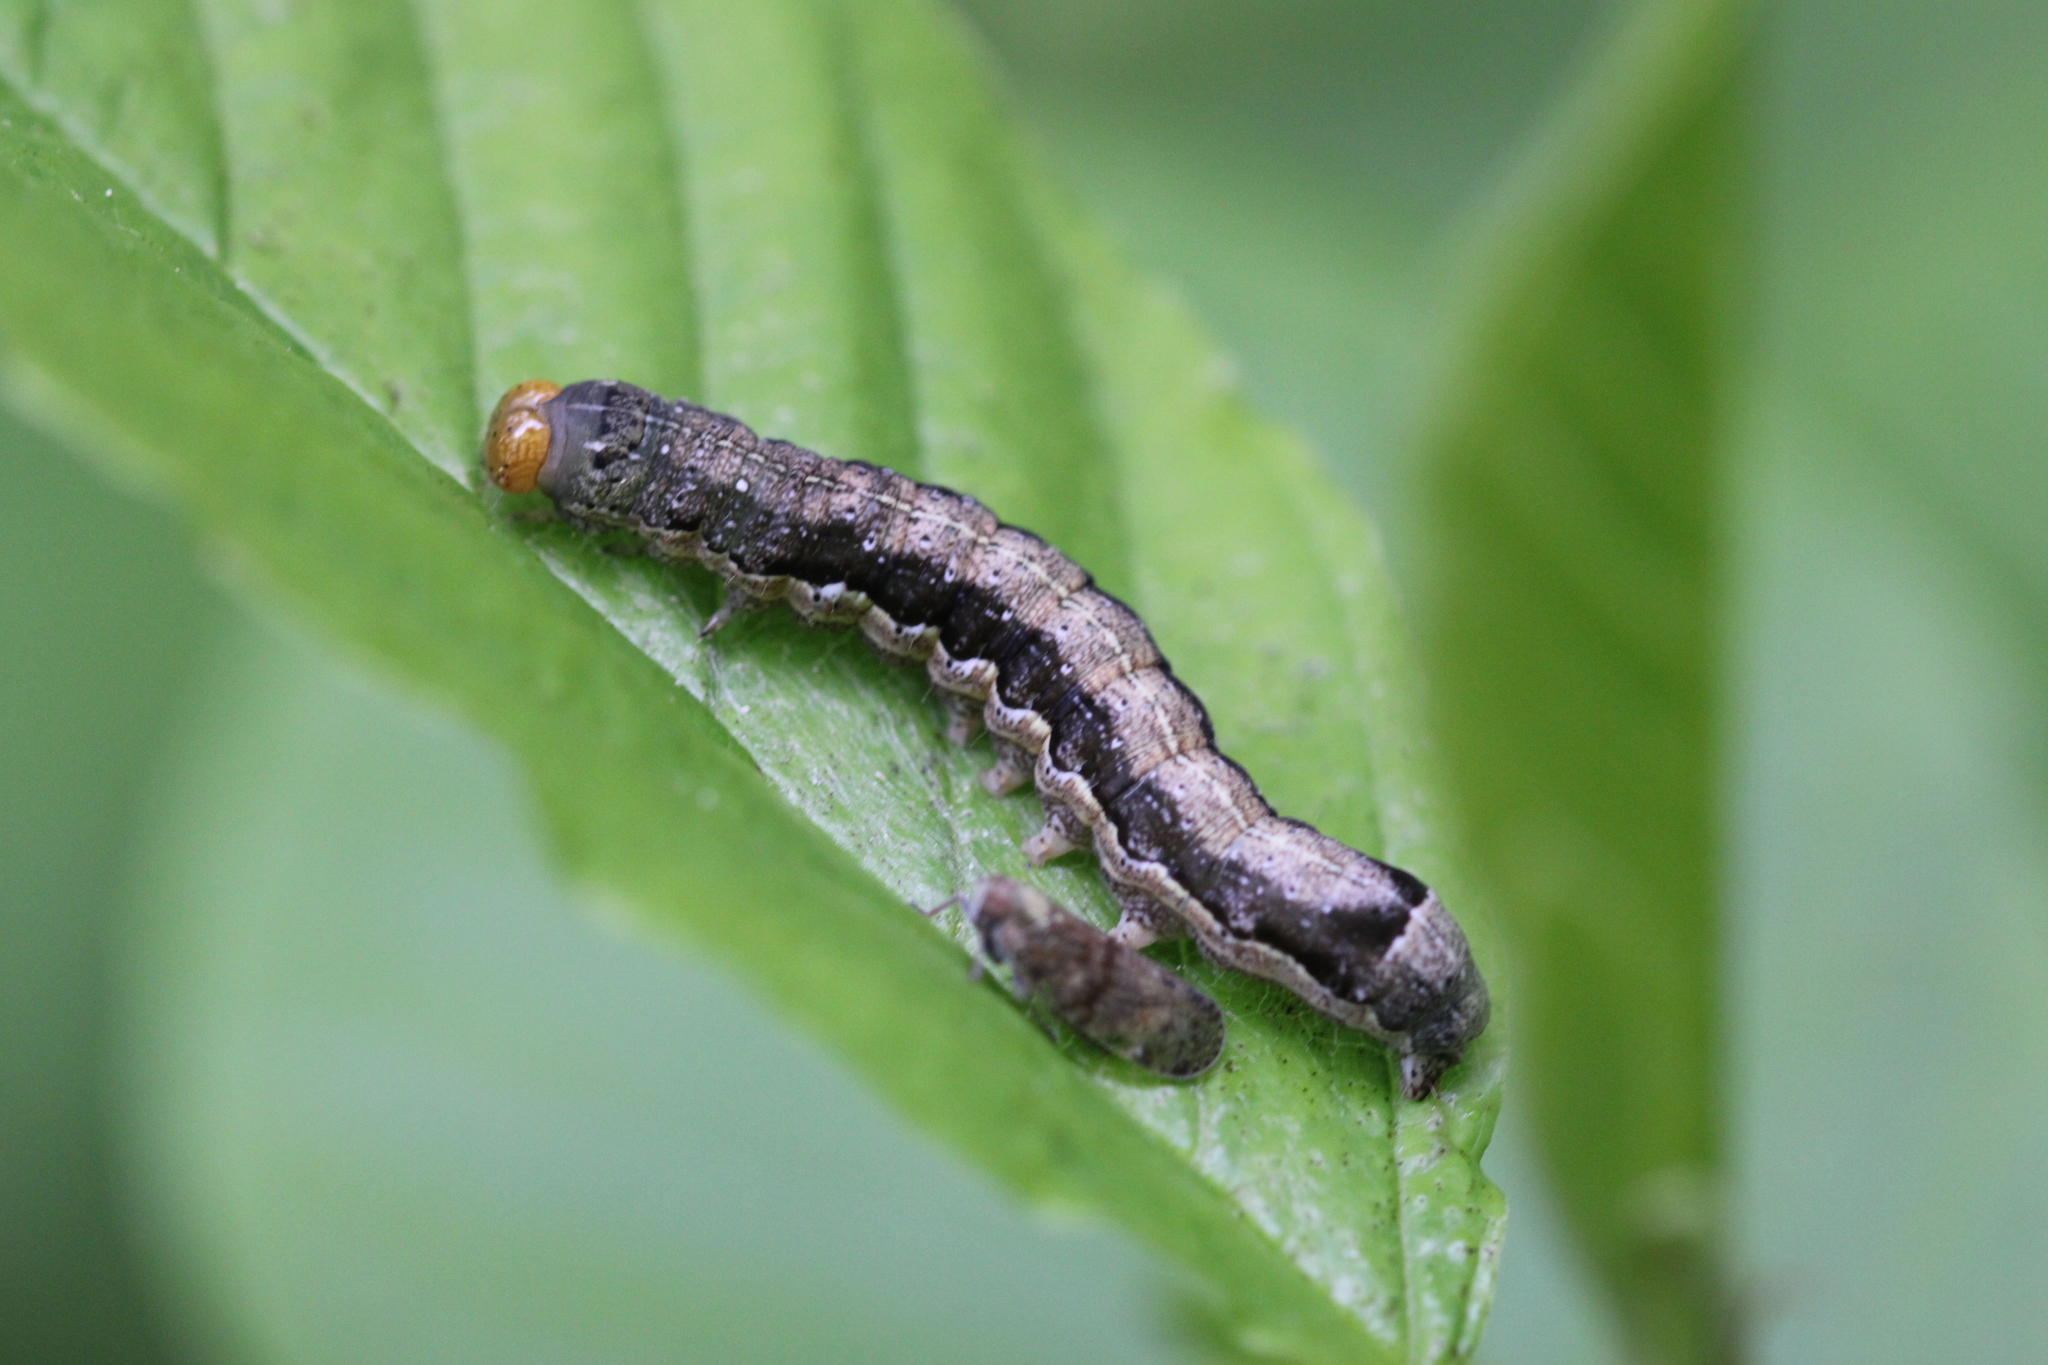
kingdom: Animalia
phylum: Arthropoda
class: Insecta
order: Lepidoptera
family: Noctuidae
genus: Anorthoa
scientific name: Anorthoa munda
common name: Twin-spotted quaker
